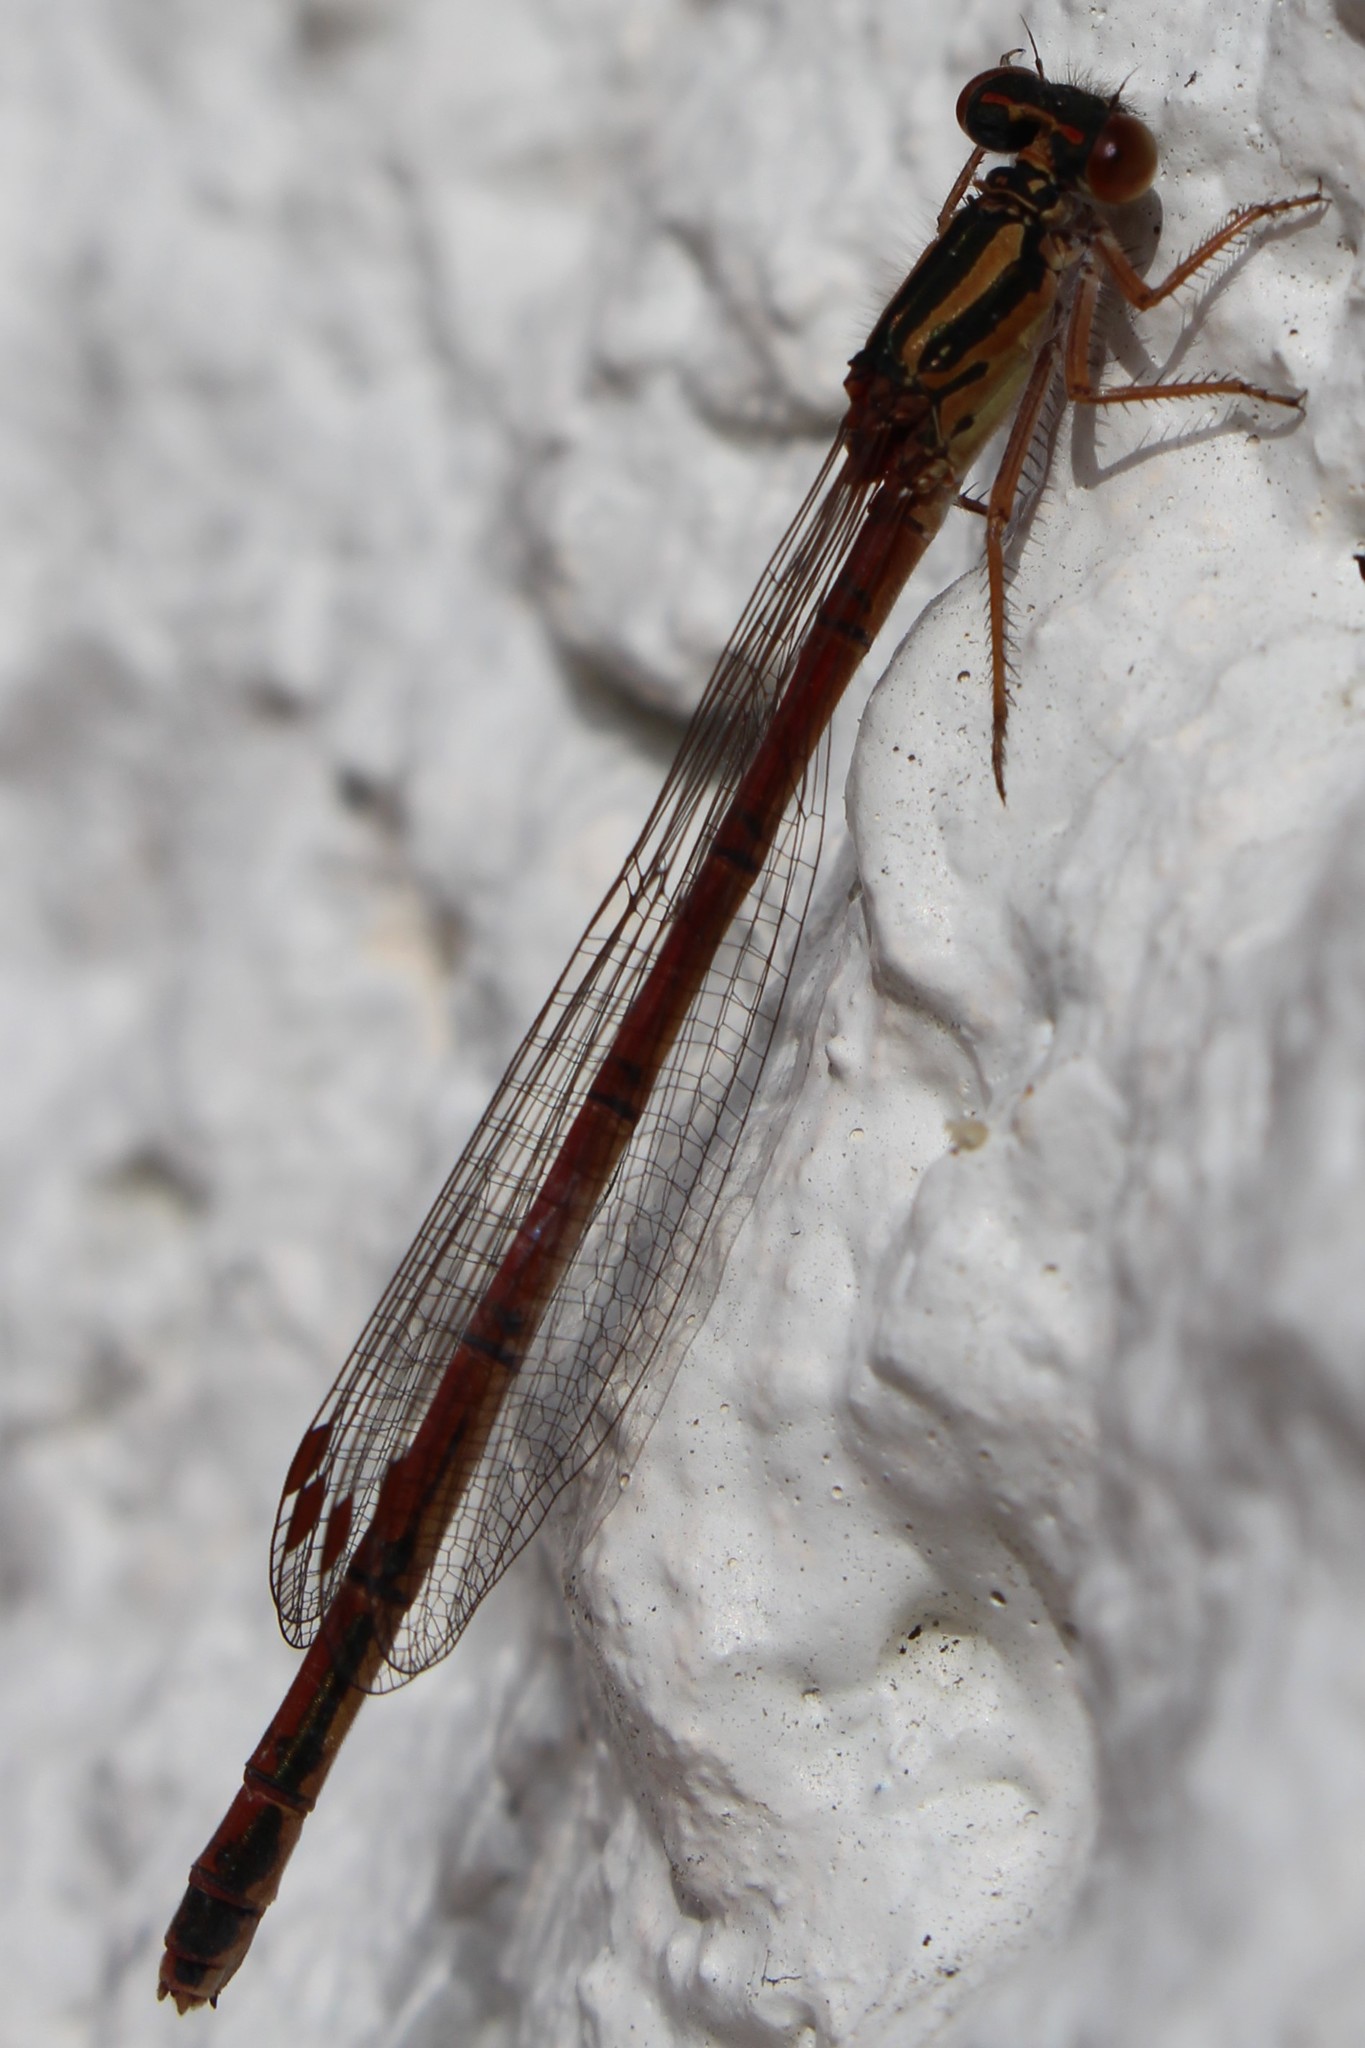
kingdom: Animalia
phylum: Arthropoda
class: Insecta
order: Odonata
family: Coenagrionidae
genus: Xanthocnemis
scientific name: Xanthocnemis zealandica
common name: Common redcoat damselfly
